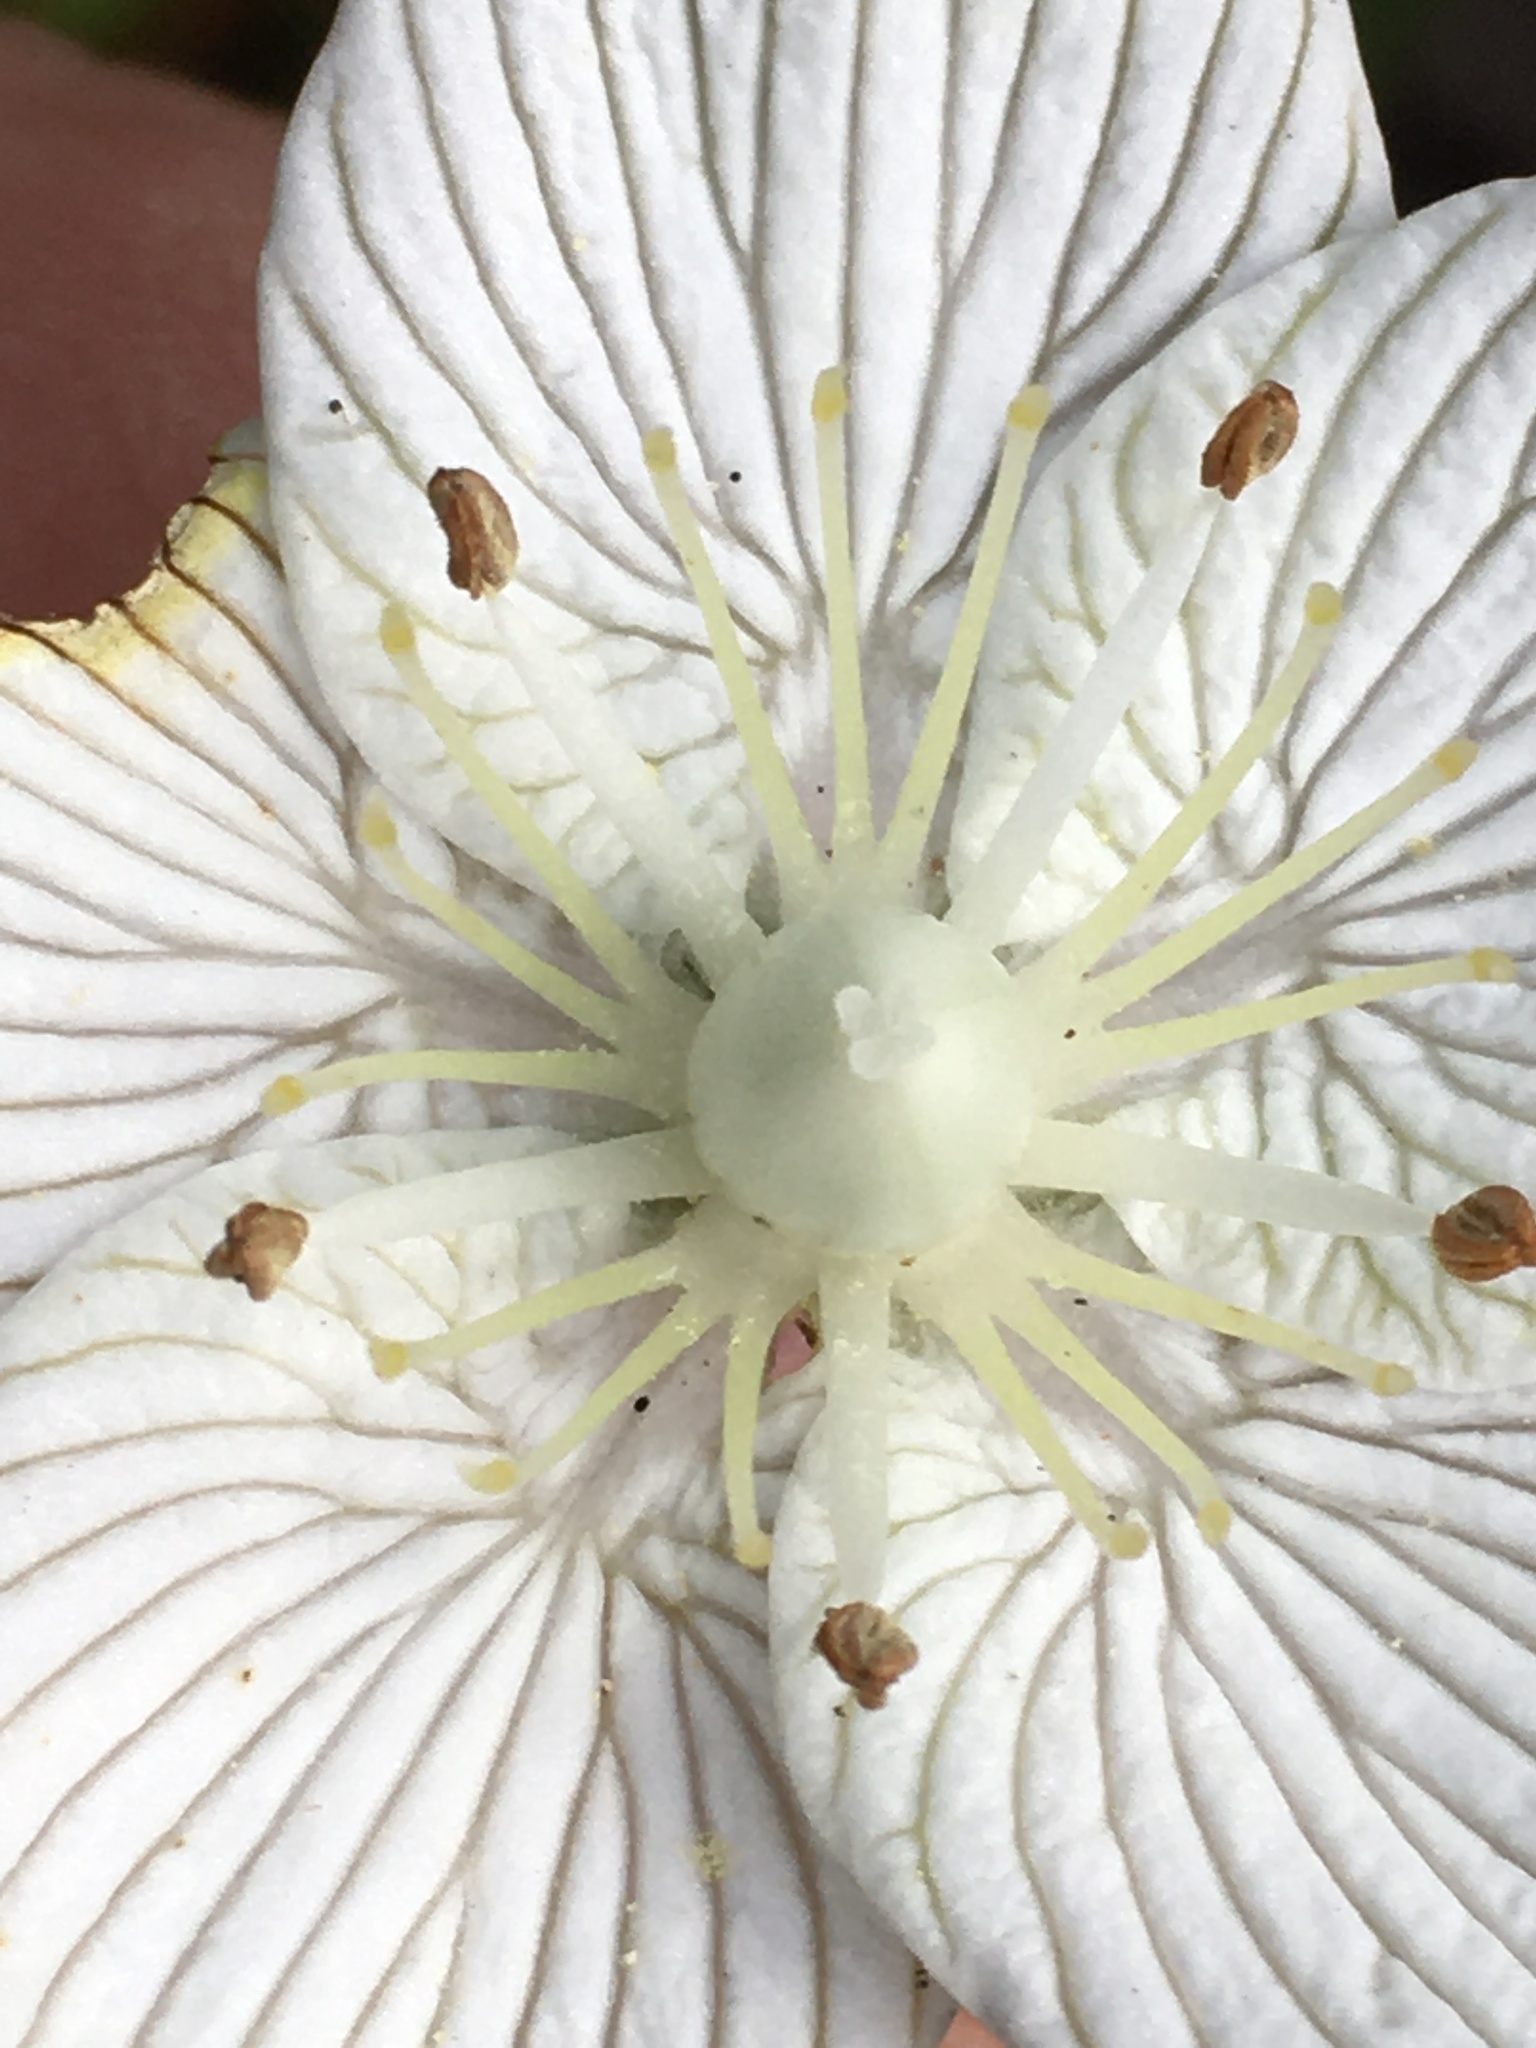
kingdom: Plantae
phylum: Tracheophyta
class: Magnoliopsida
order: Celastrales
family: Parnassiaceae
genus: Parnassia
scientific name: Parnassia caroliniana
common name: Carolina grass of parnassus
